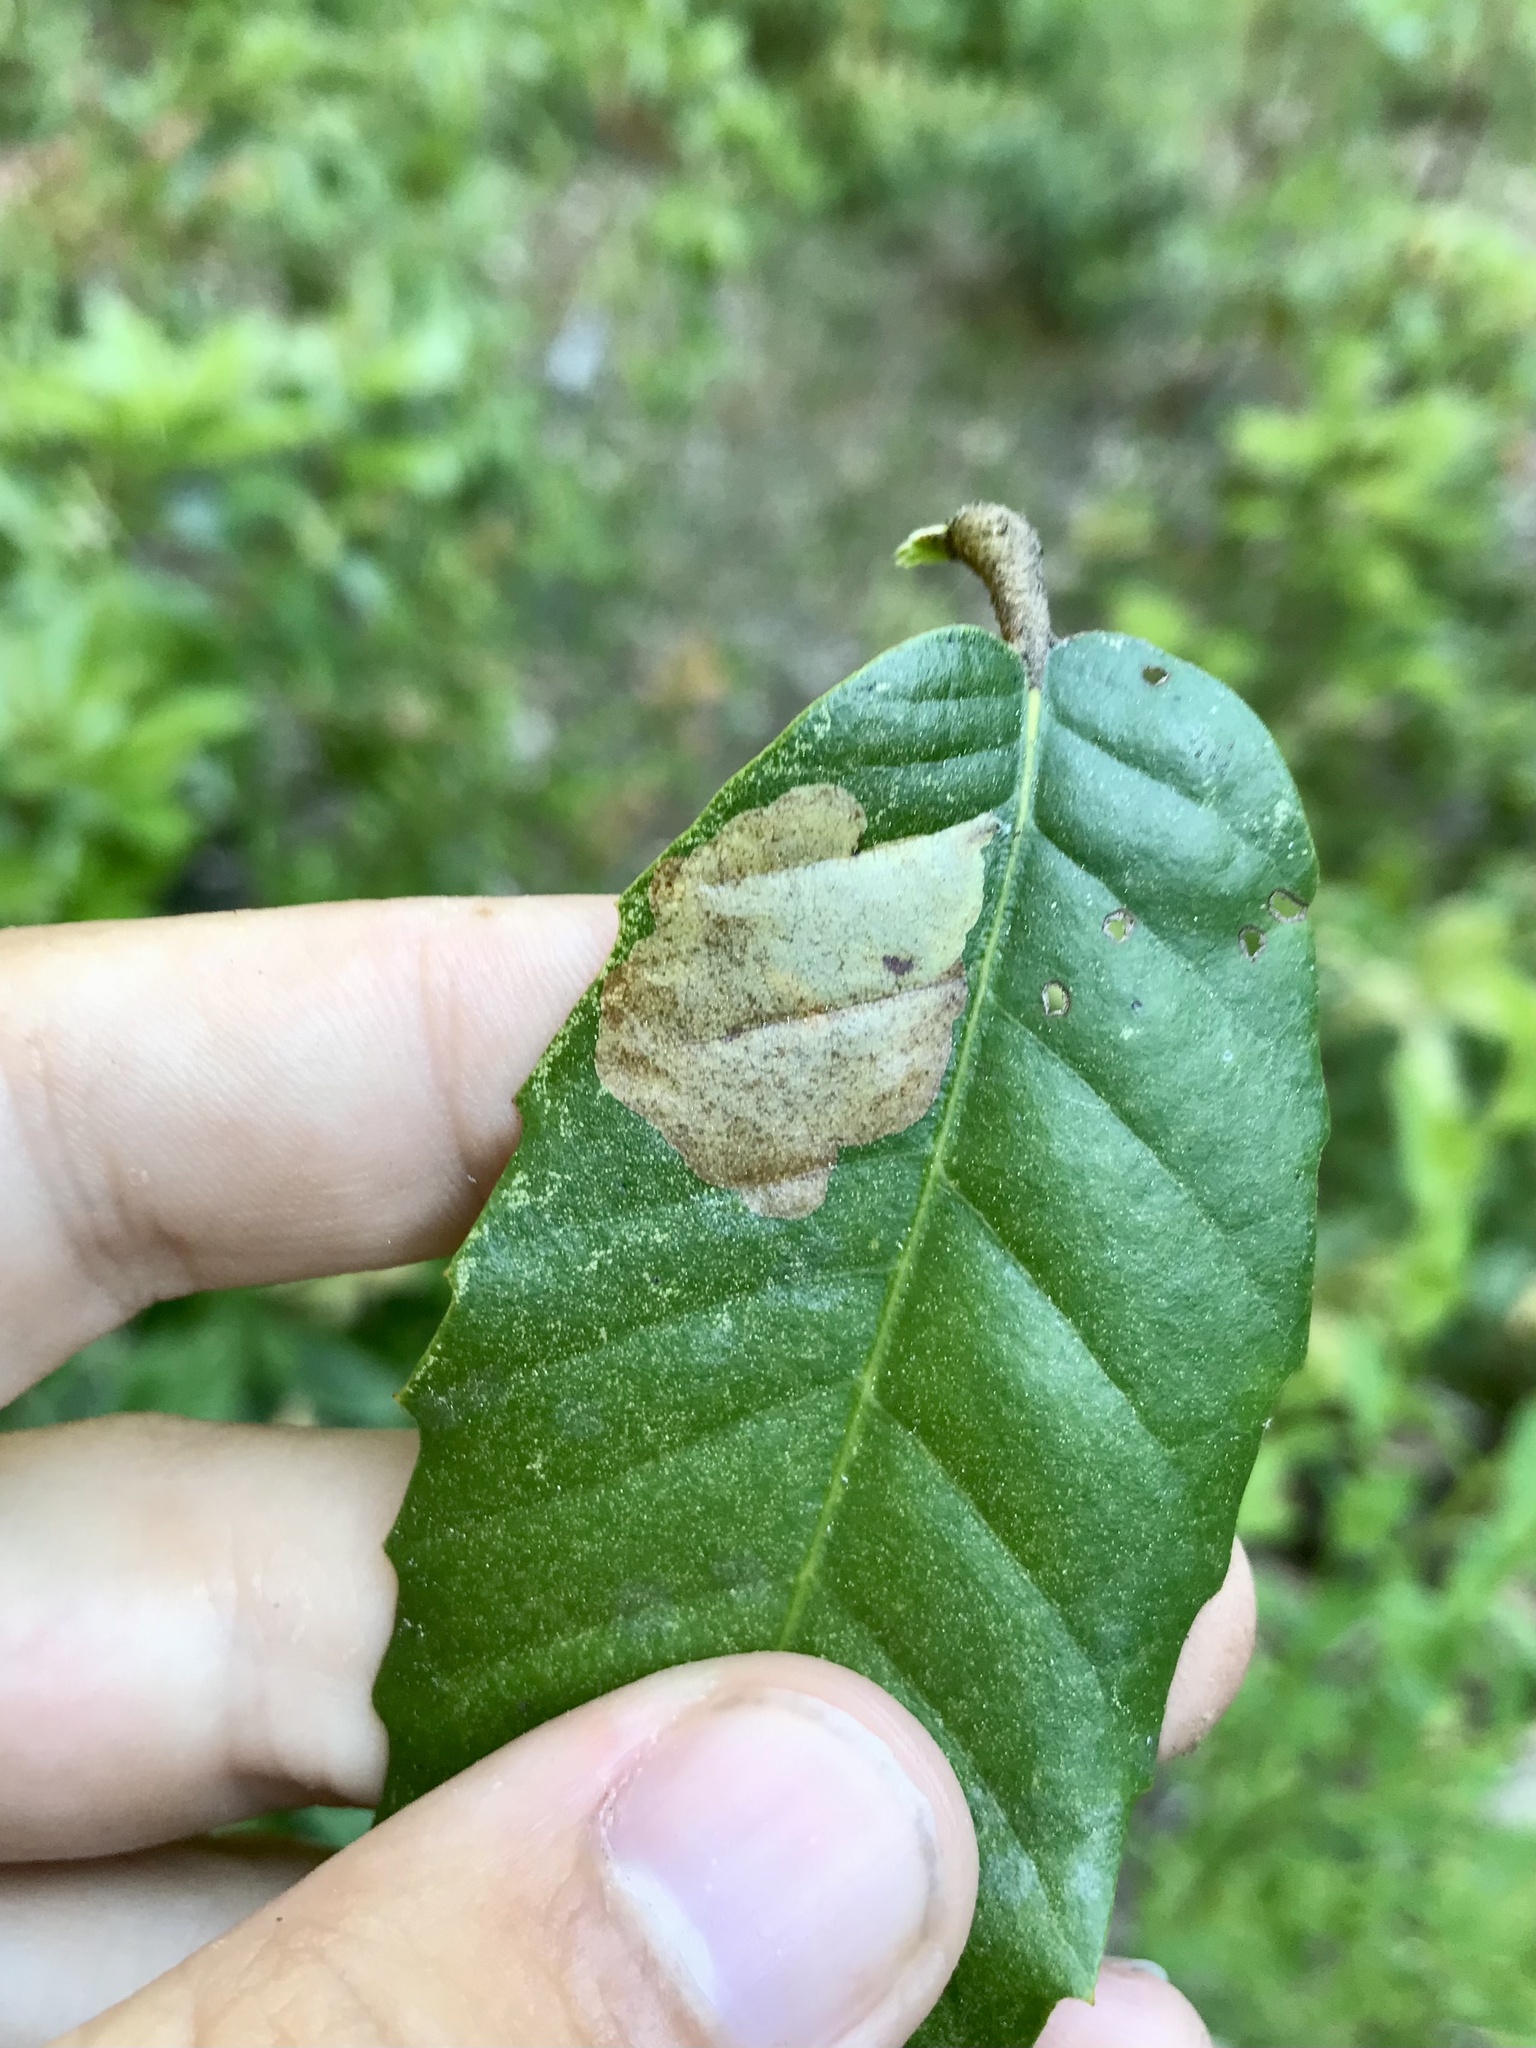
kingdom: Animalia
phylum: Arthropoda
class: Insecta
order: Lepidoptera
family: Gracillariidae
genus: Cameraria
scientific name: Cameraria marinensis
